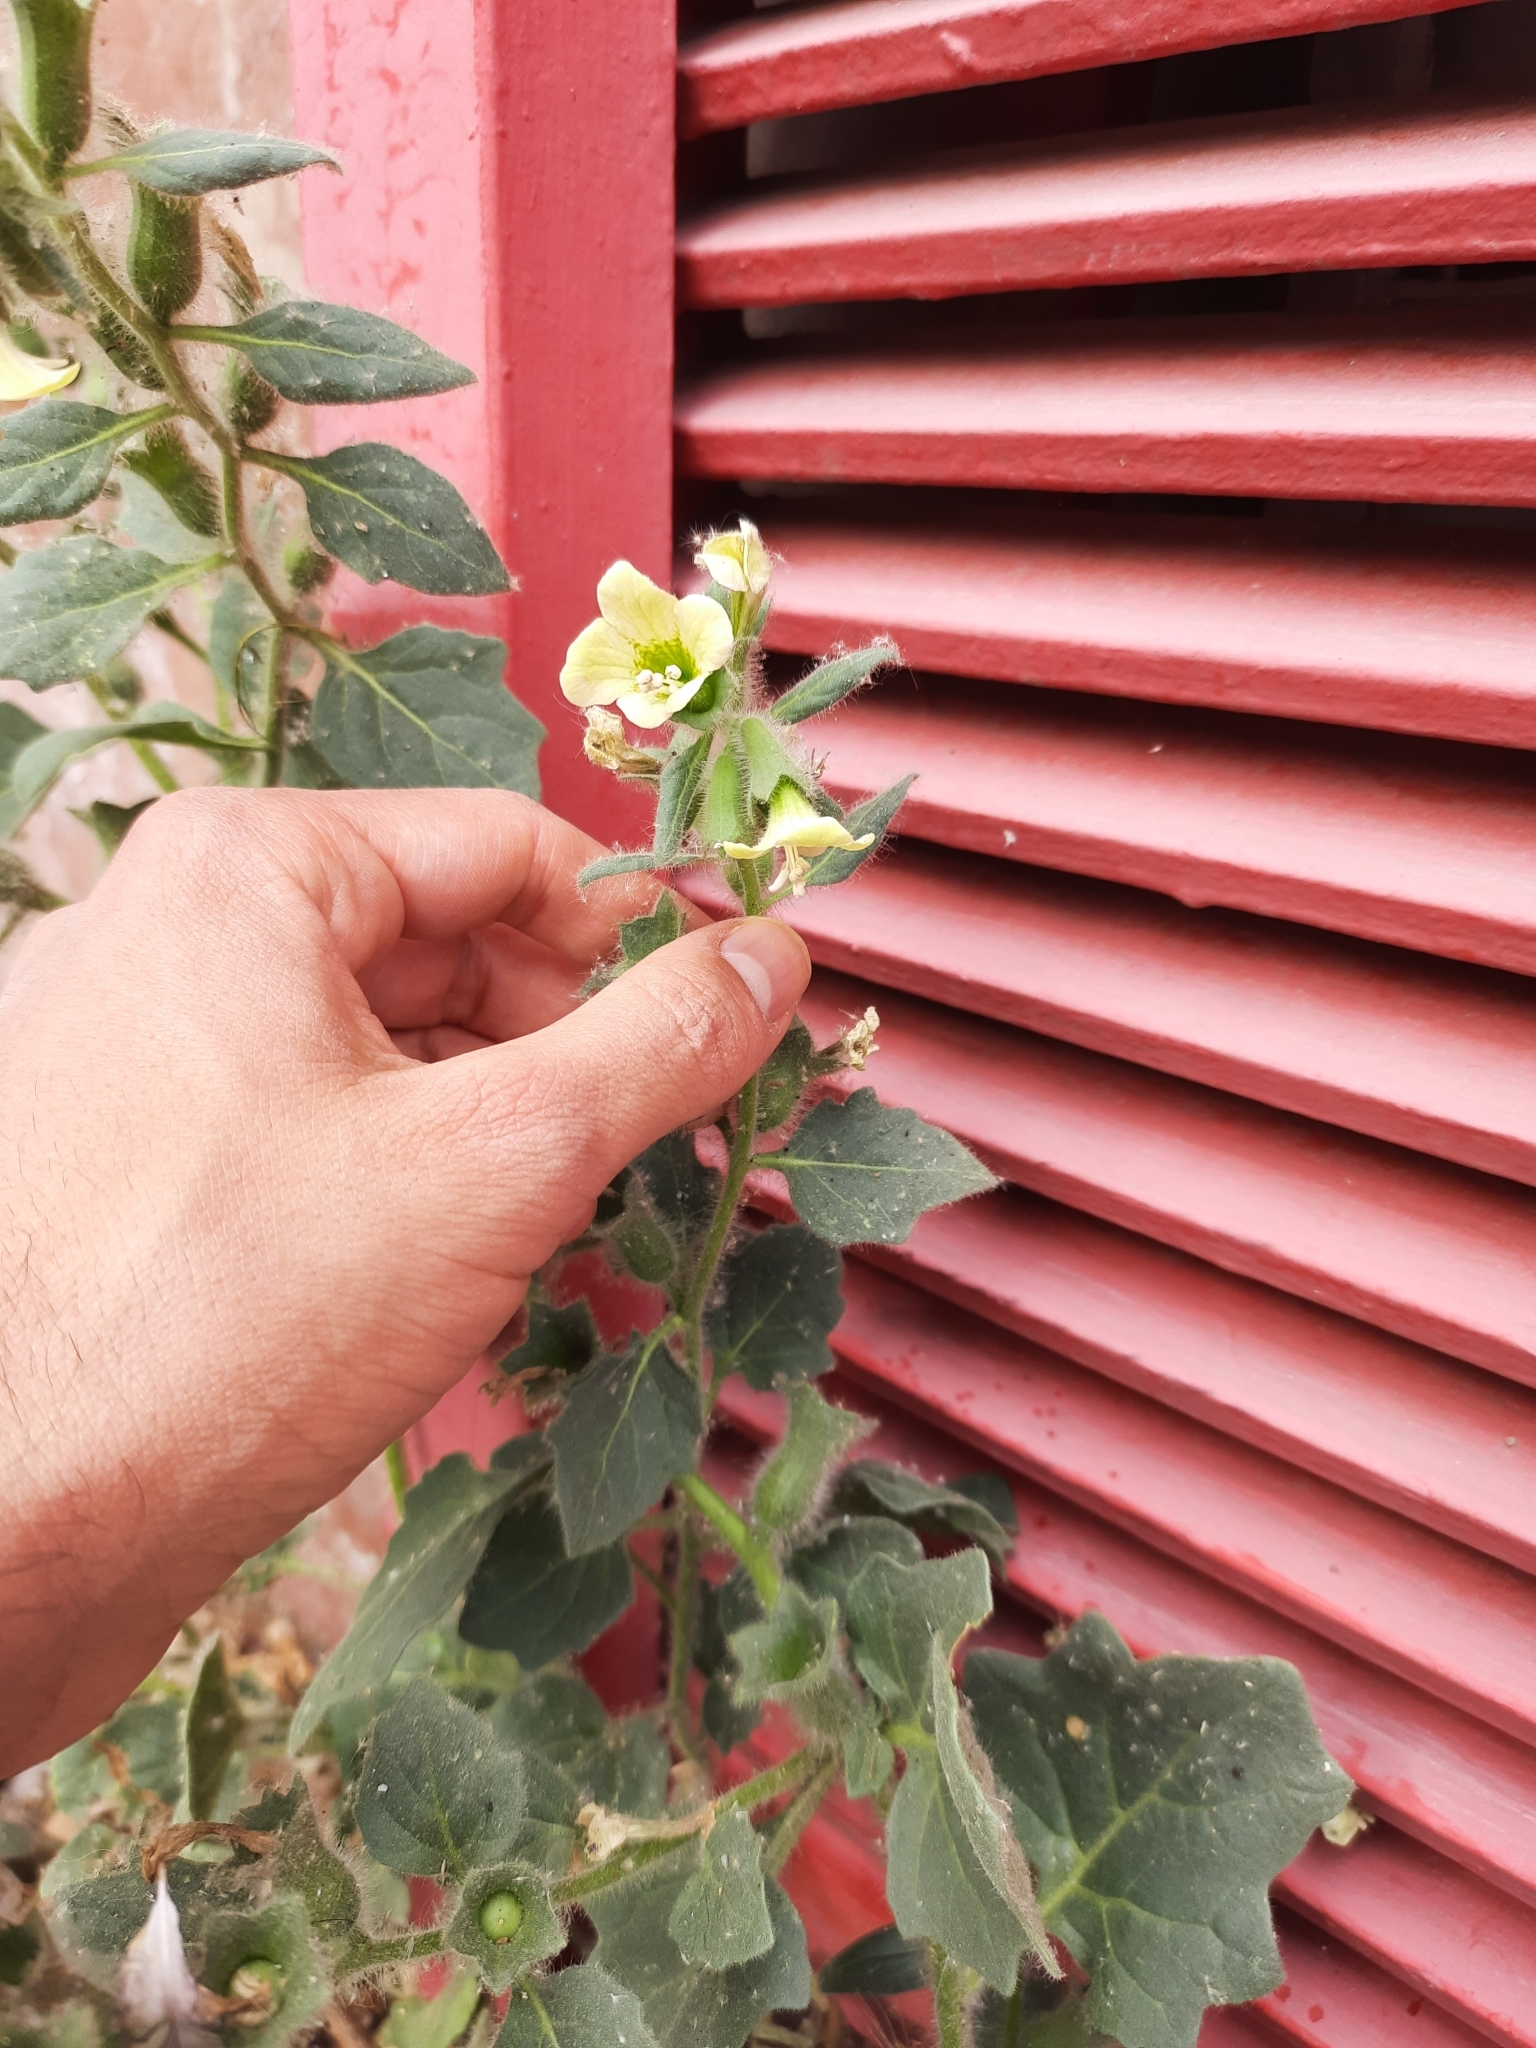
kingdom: Plantae
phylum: Tracheophyta
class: Magnoliopsida
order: Solanales
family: Solanaceae
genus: Hyoscyamus
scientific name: Hyoscyamus albus
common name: White henbane
